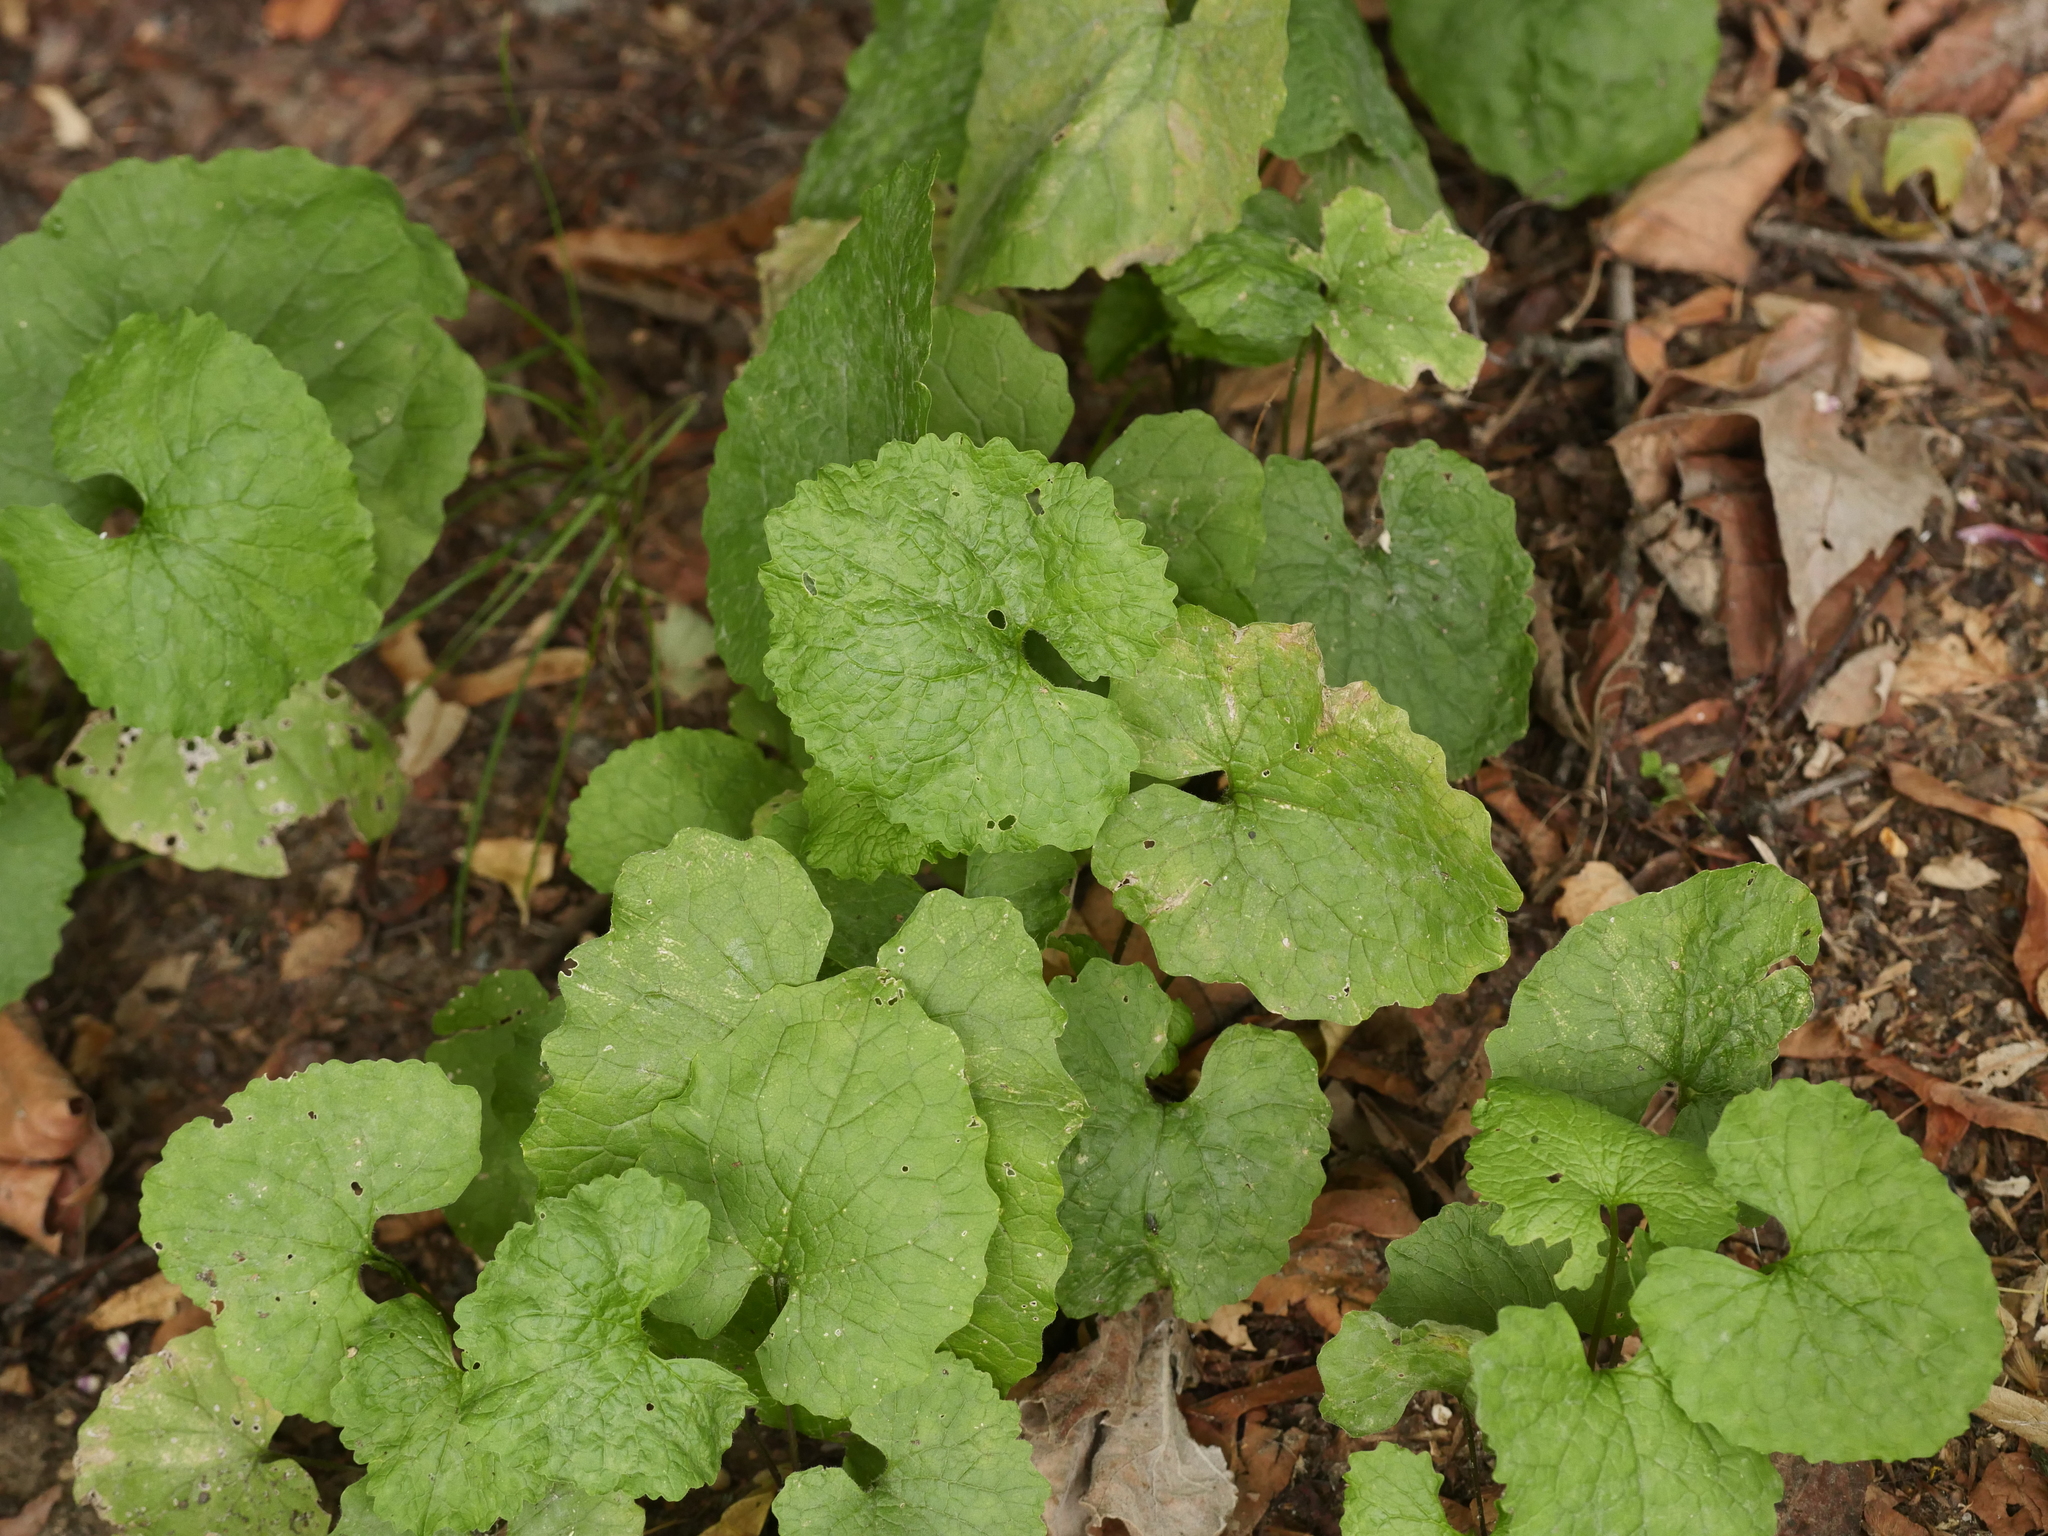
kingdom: Plantae
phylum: Tracheophyta
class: Magnoliopsida
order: Brassicales
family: Brassicaceae
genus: Alliaria
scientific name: Alliaria petiolata
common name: Garlic mustard
